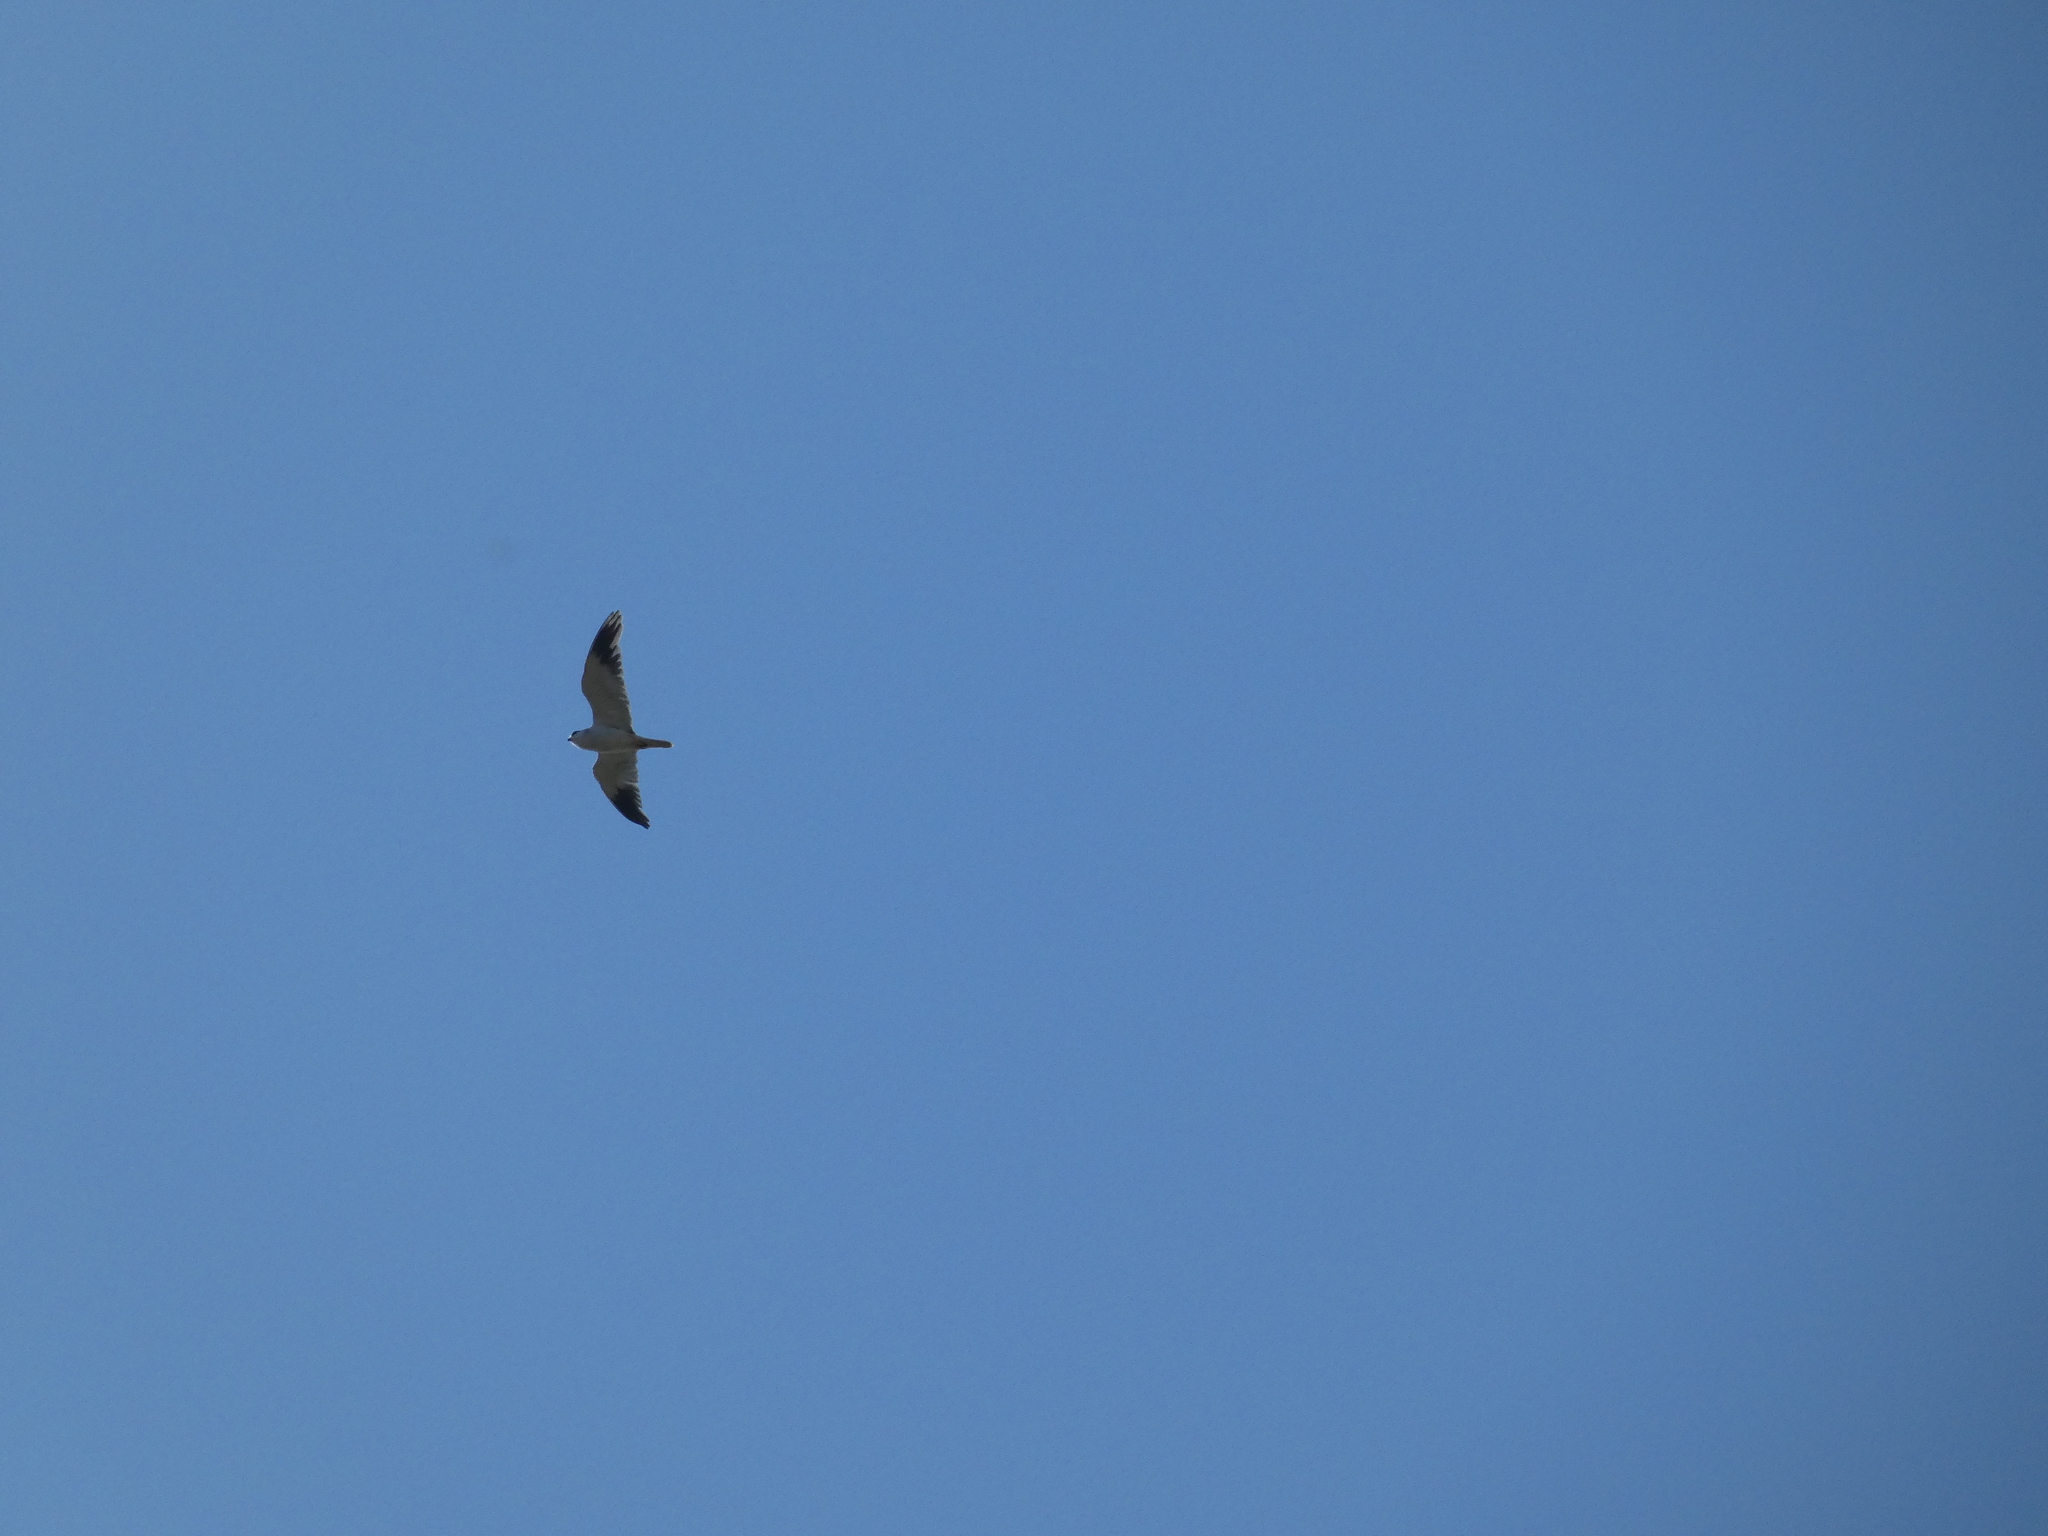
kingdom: Animalia
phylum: Chordata
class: Aves
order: Accipitriformes
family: Accipitridae
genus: Elanus
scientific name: Elanus caeruleus
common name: Black-winged kite
